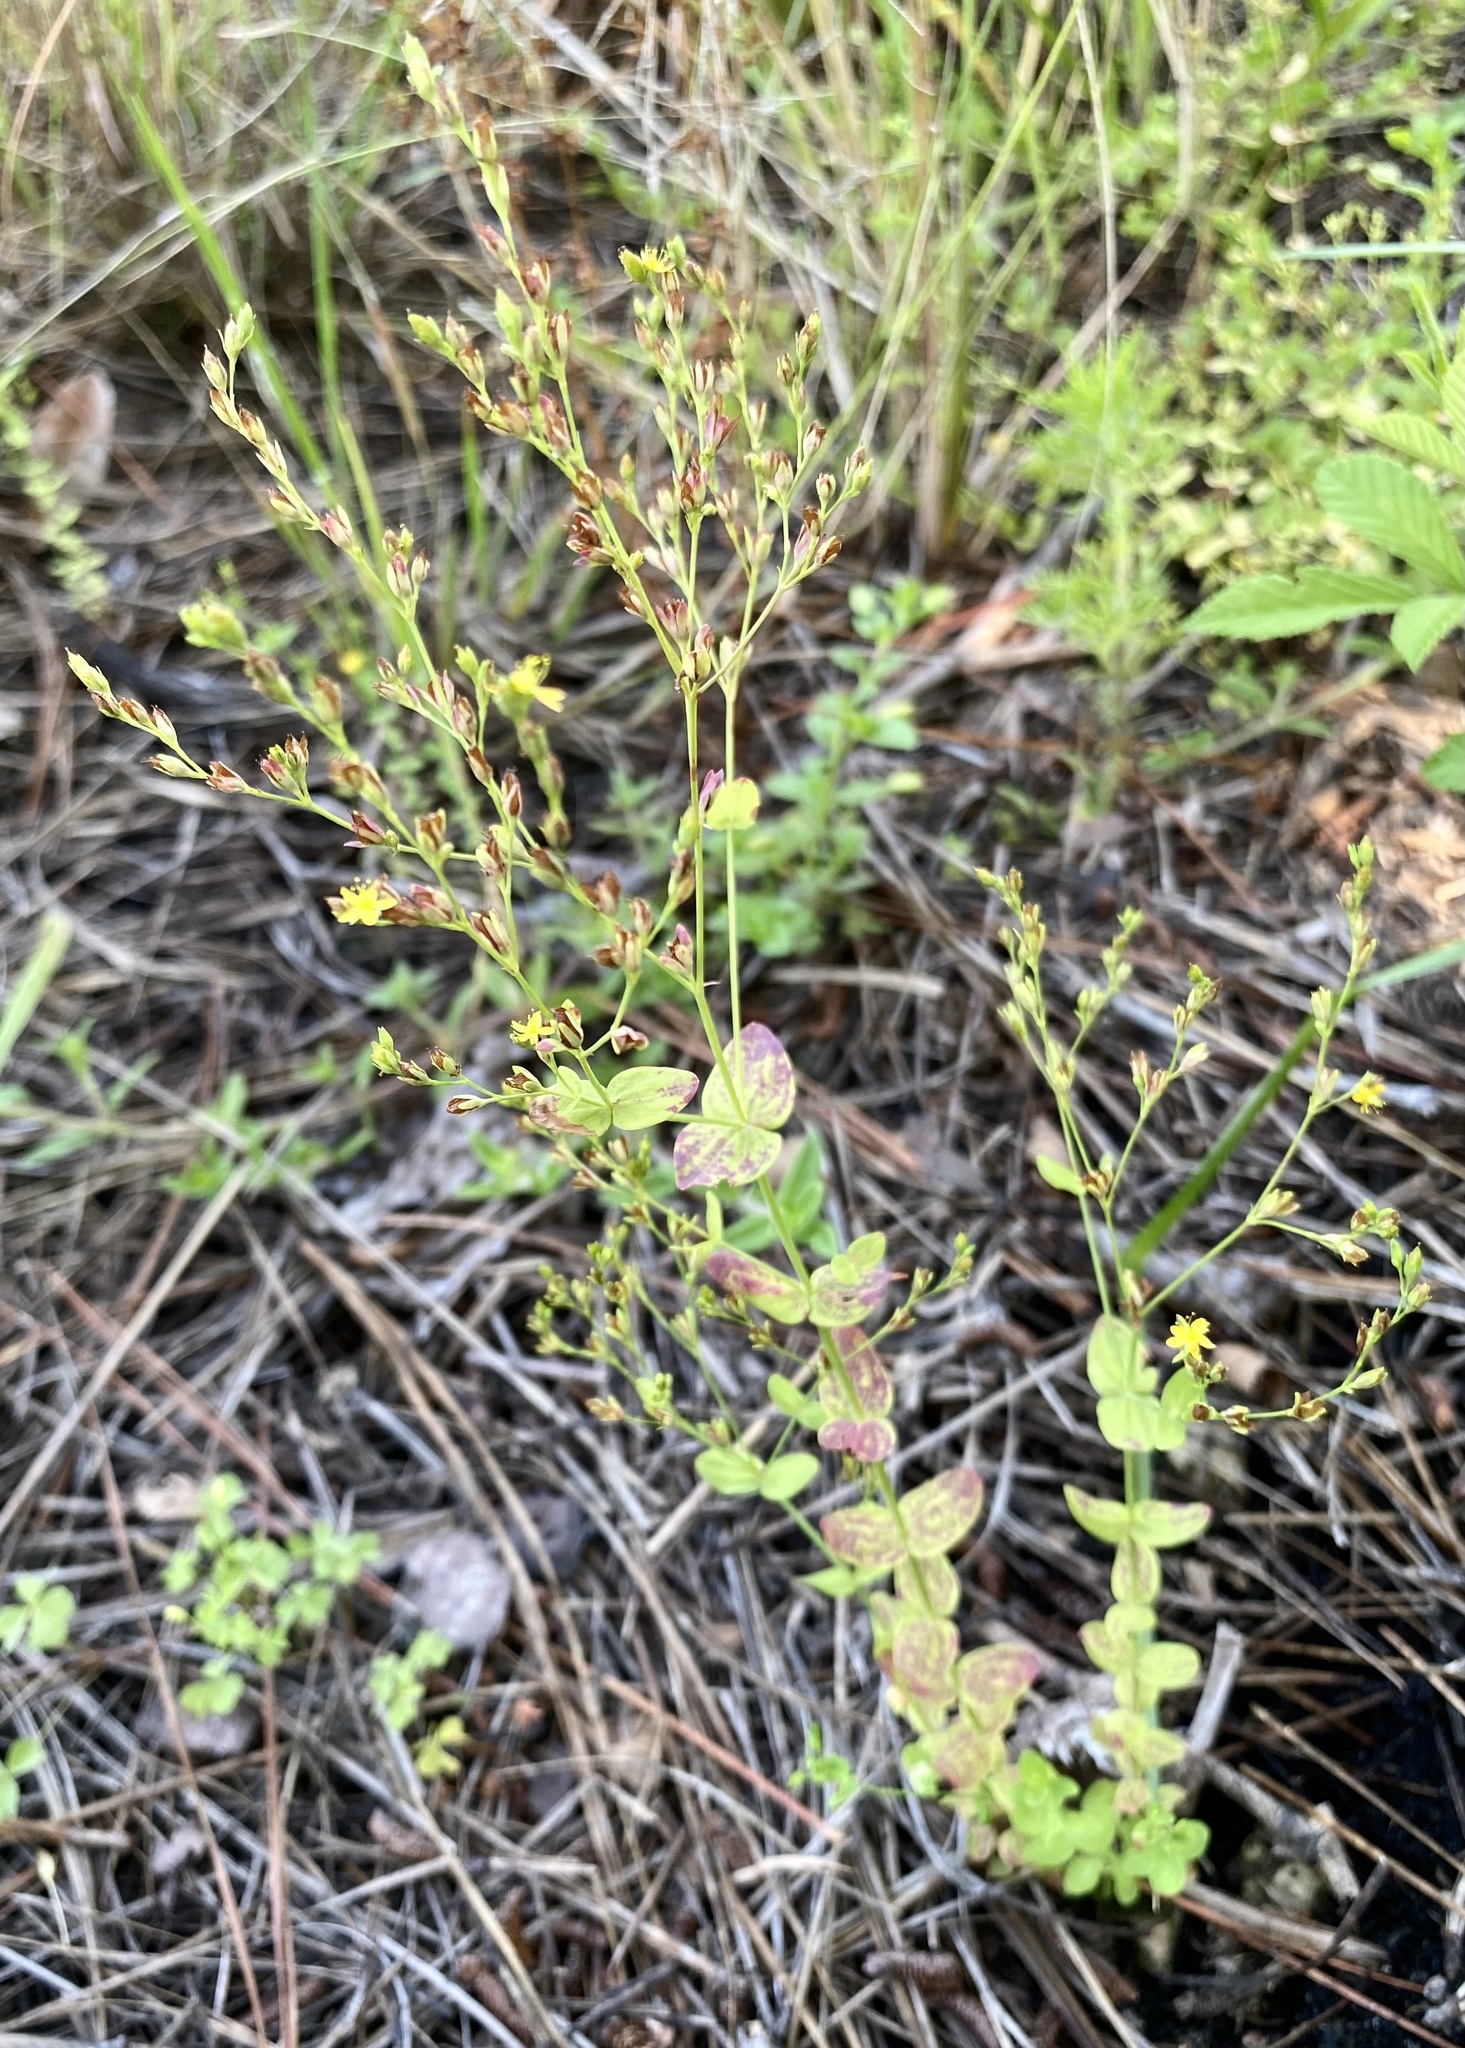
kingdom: Plantae
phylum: Tracheophyta
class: Magnoliopsida
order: Malpighiales
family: Hypericaceae
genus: Hypericum
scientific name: Hypericum mutilum
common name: Dwarf st. john's-wort
